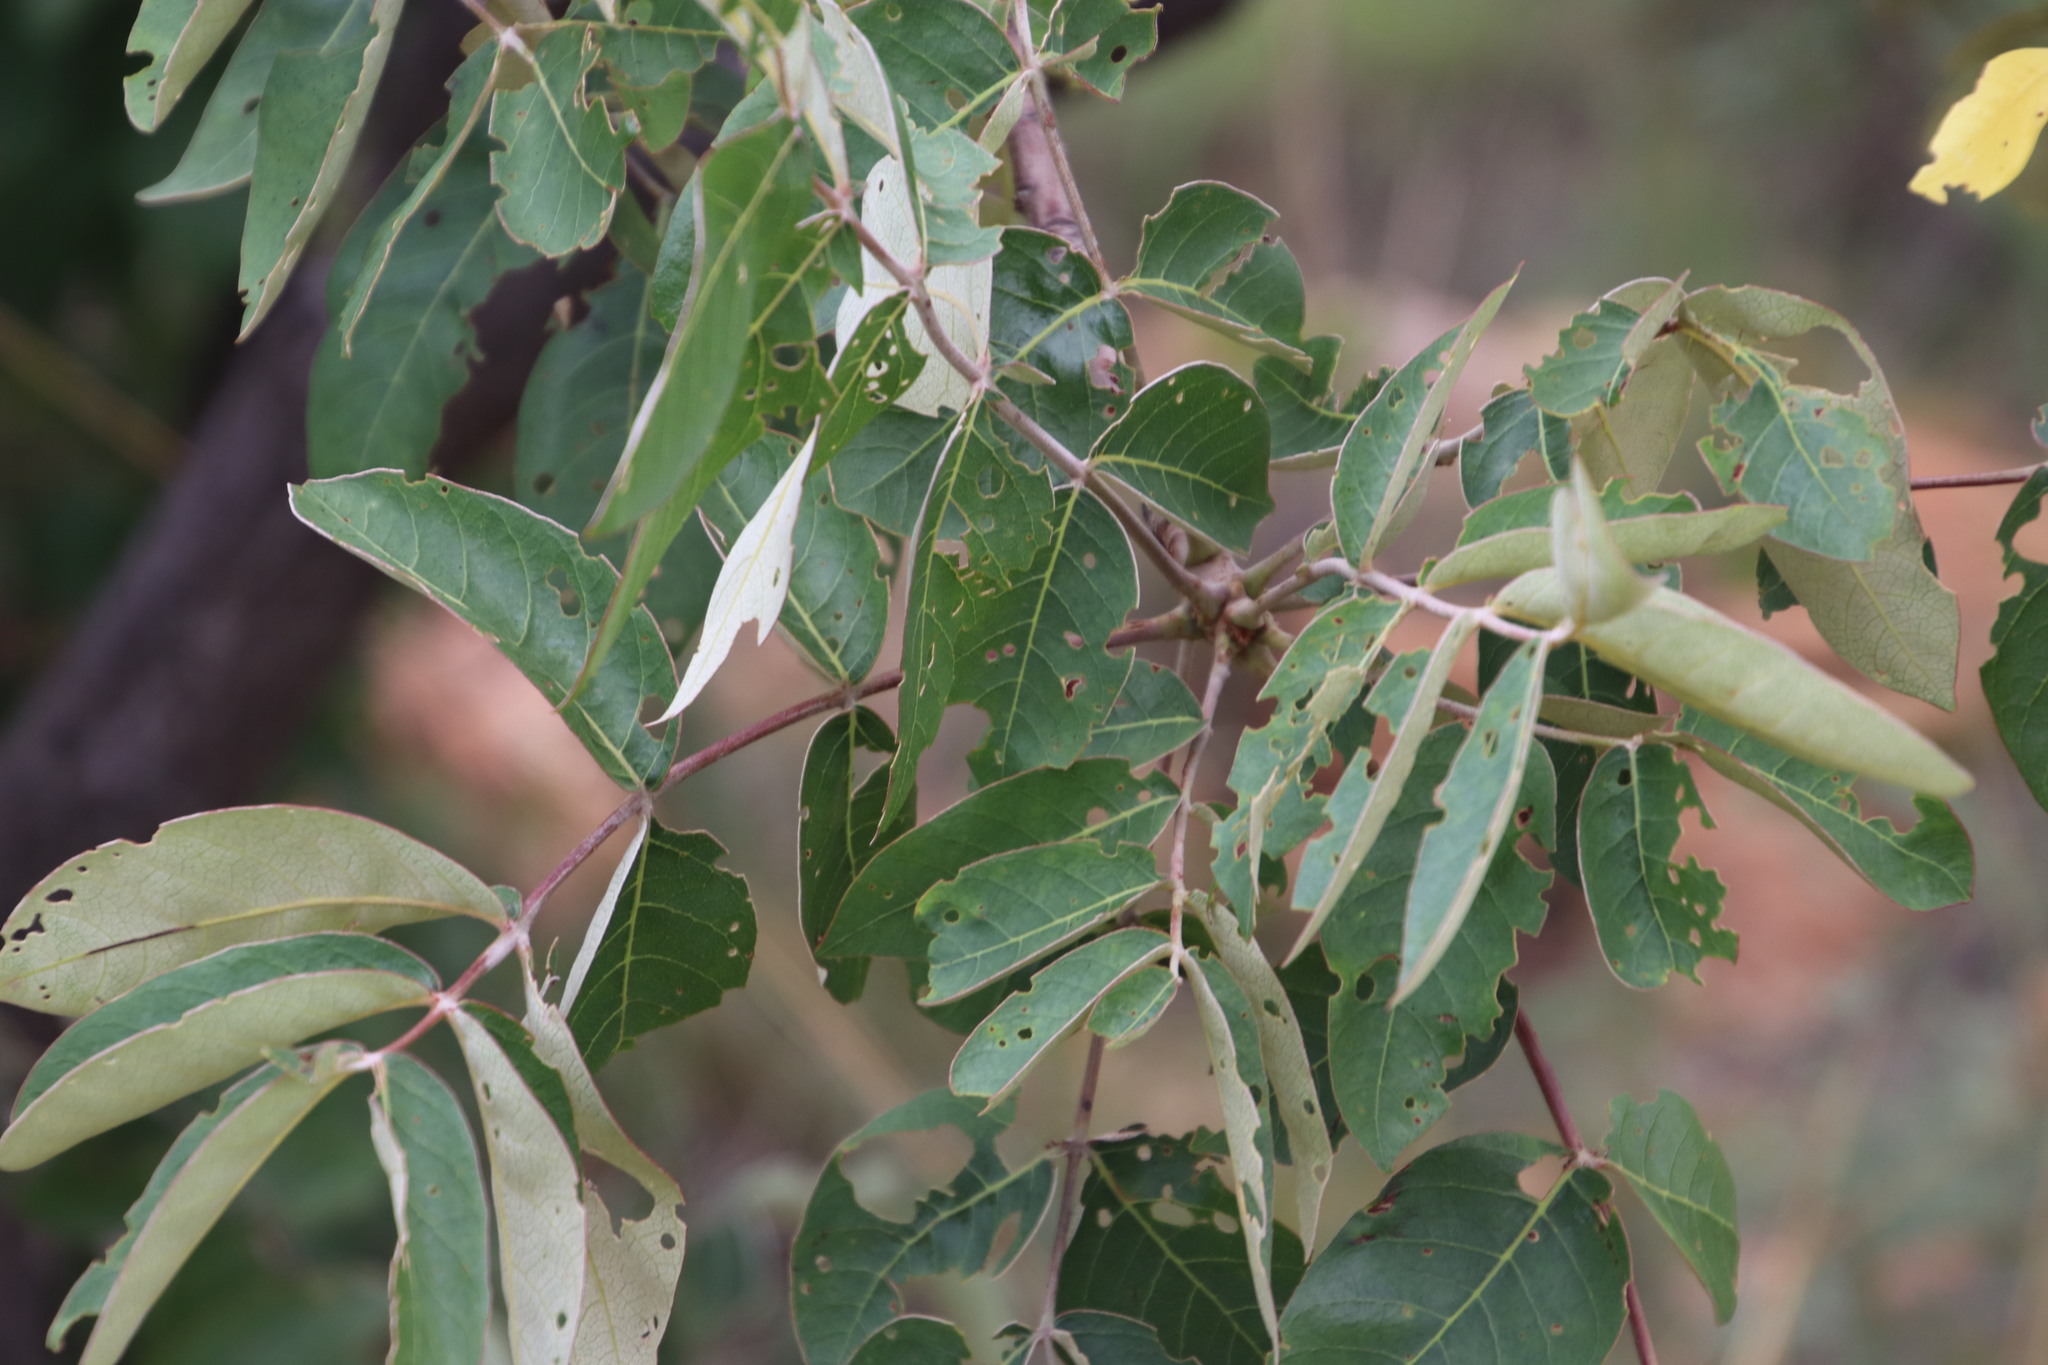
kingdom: Plantae
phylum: Tracheophyta
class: Magnoliopsida
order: Sapindales
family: Anacardiaceae
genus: Lannea
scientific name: Lannea discolor
